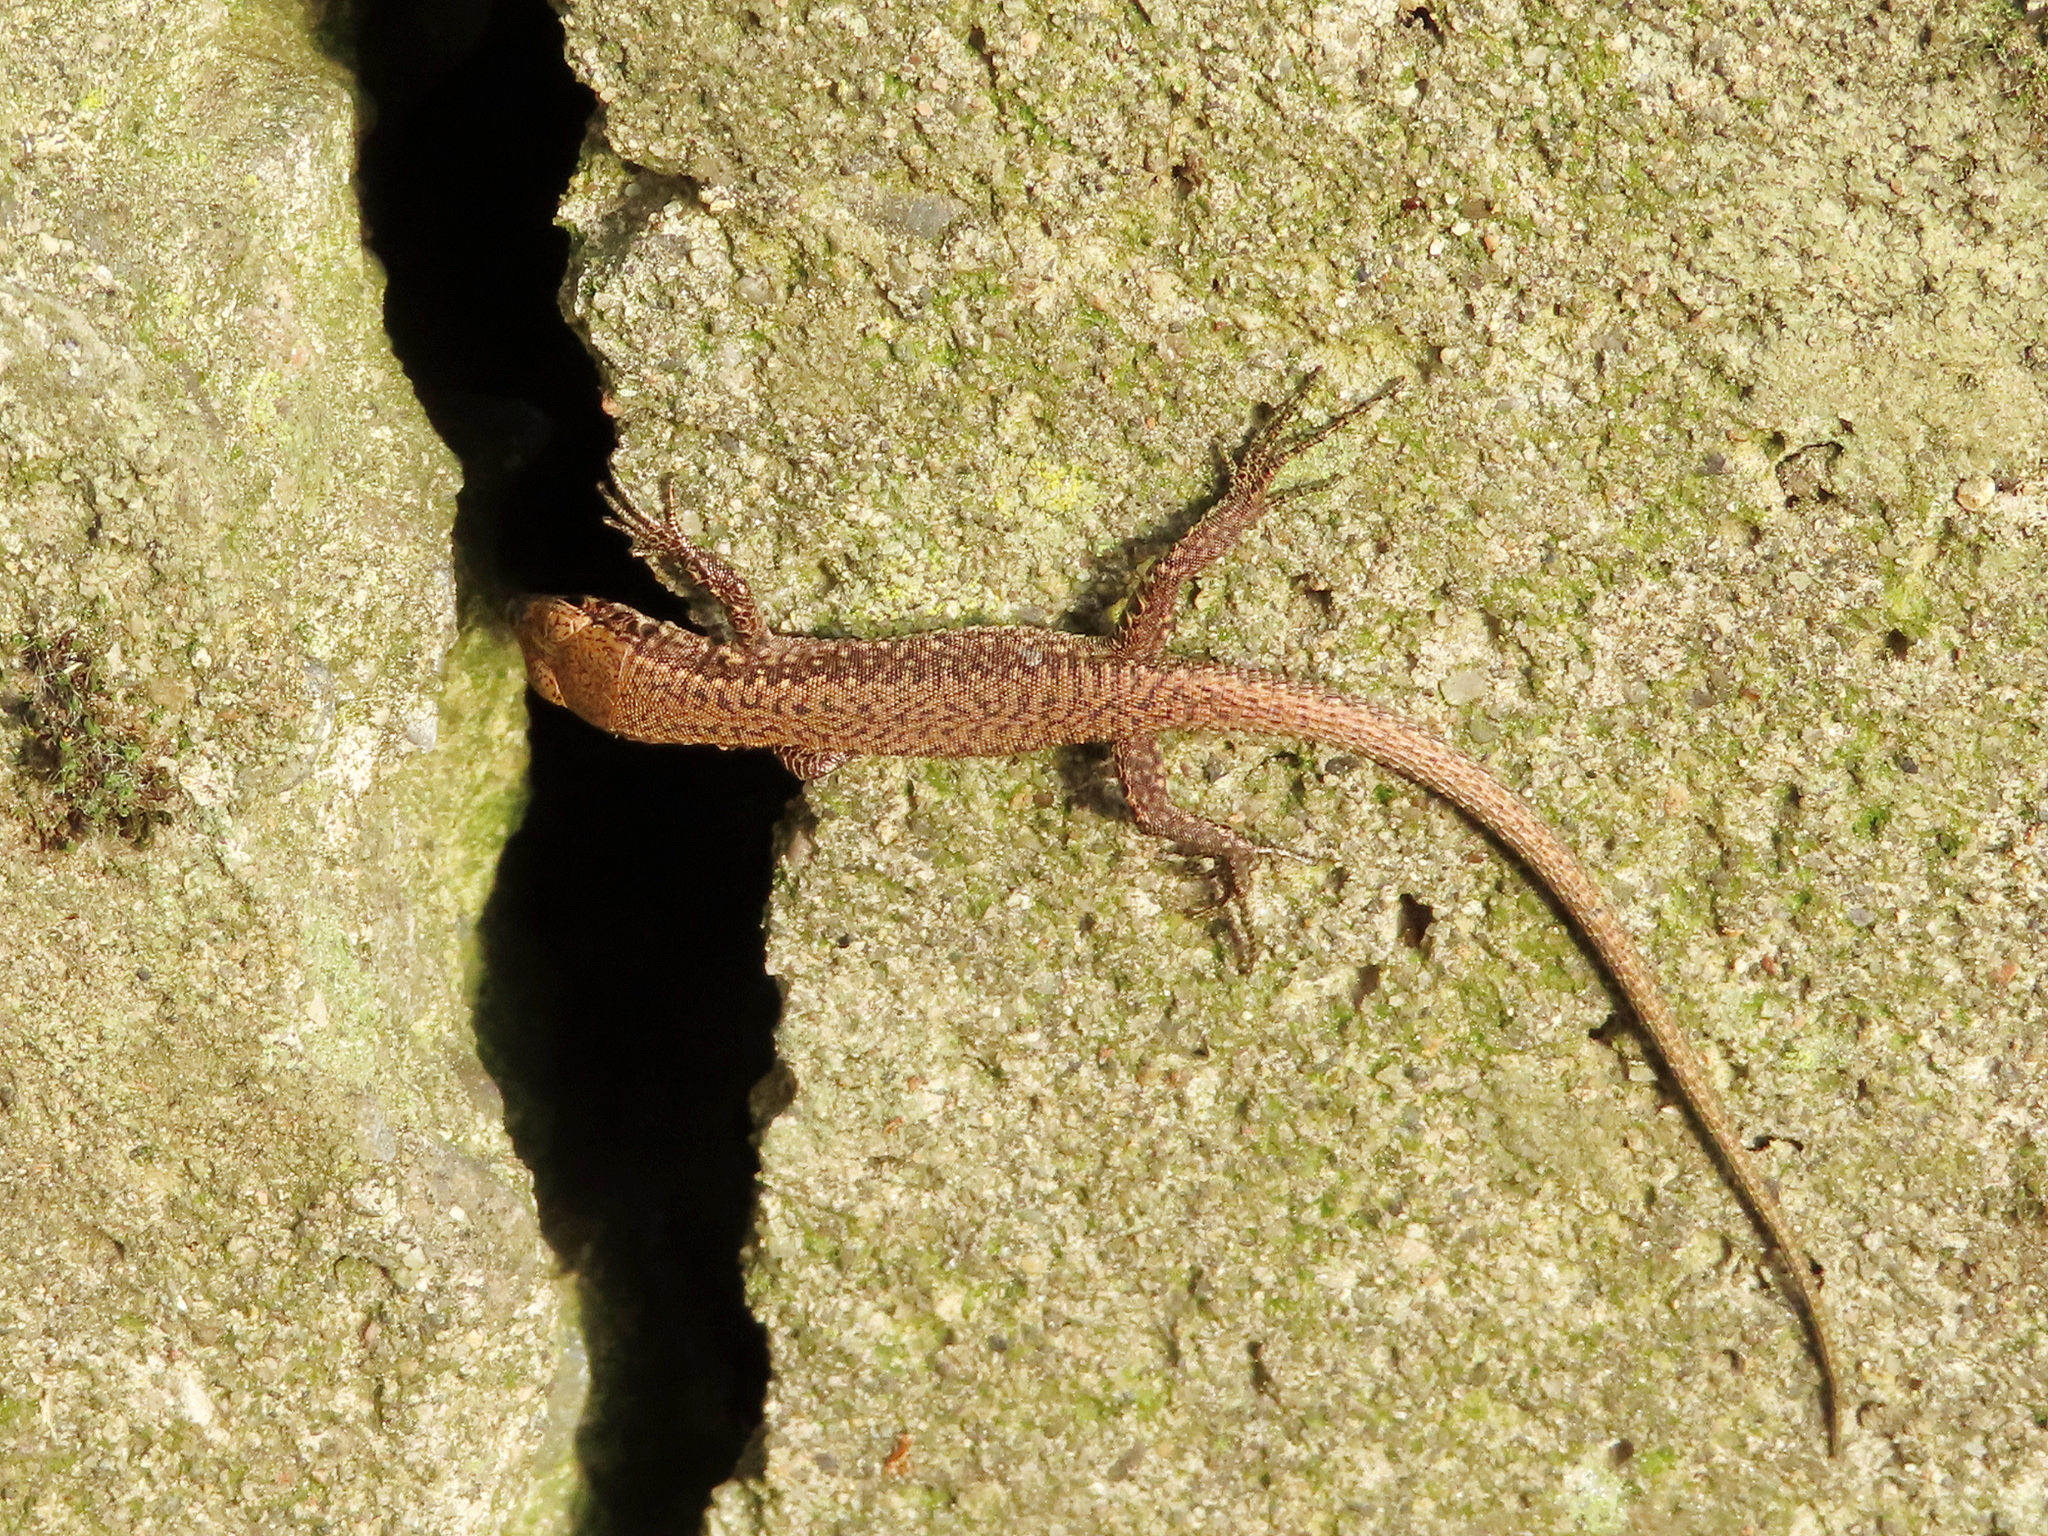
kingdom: Animalia
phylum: Chordata
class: Squamata
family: Lacertidae
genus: Darevskia
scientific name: Darevskia rudis
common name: Spiny-tailed lizard
